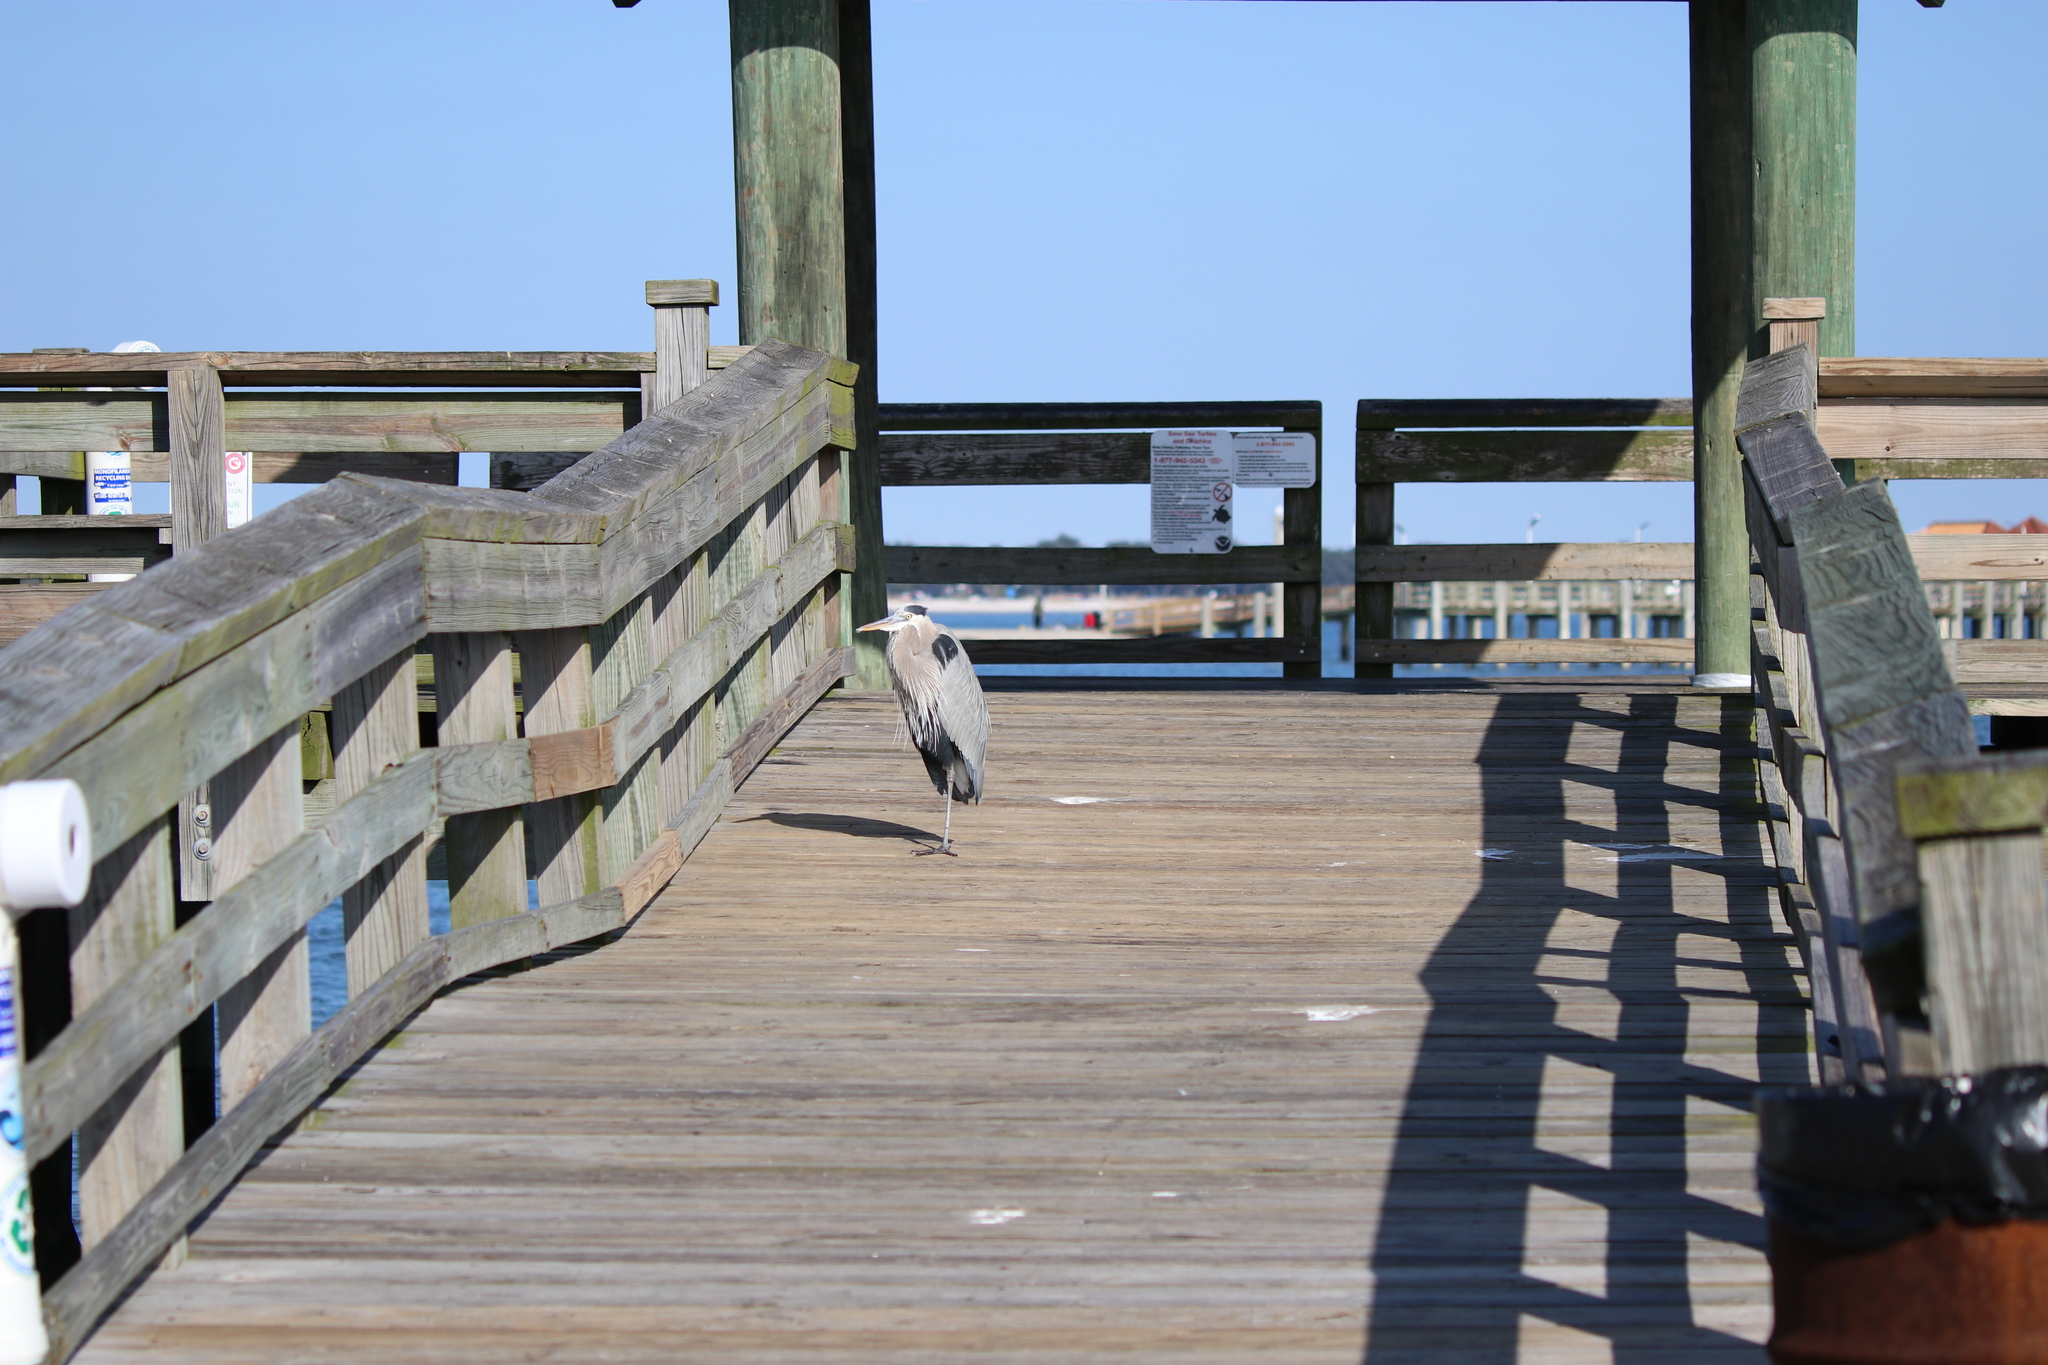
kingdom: Animalia
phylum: Chordata
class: Aves
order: Pelecaniformes
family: Ardeidae
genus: Ardea
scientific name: Ardea herodias
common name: Great blue heron
